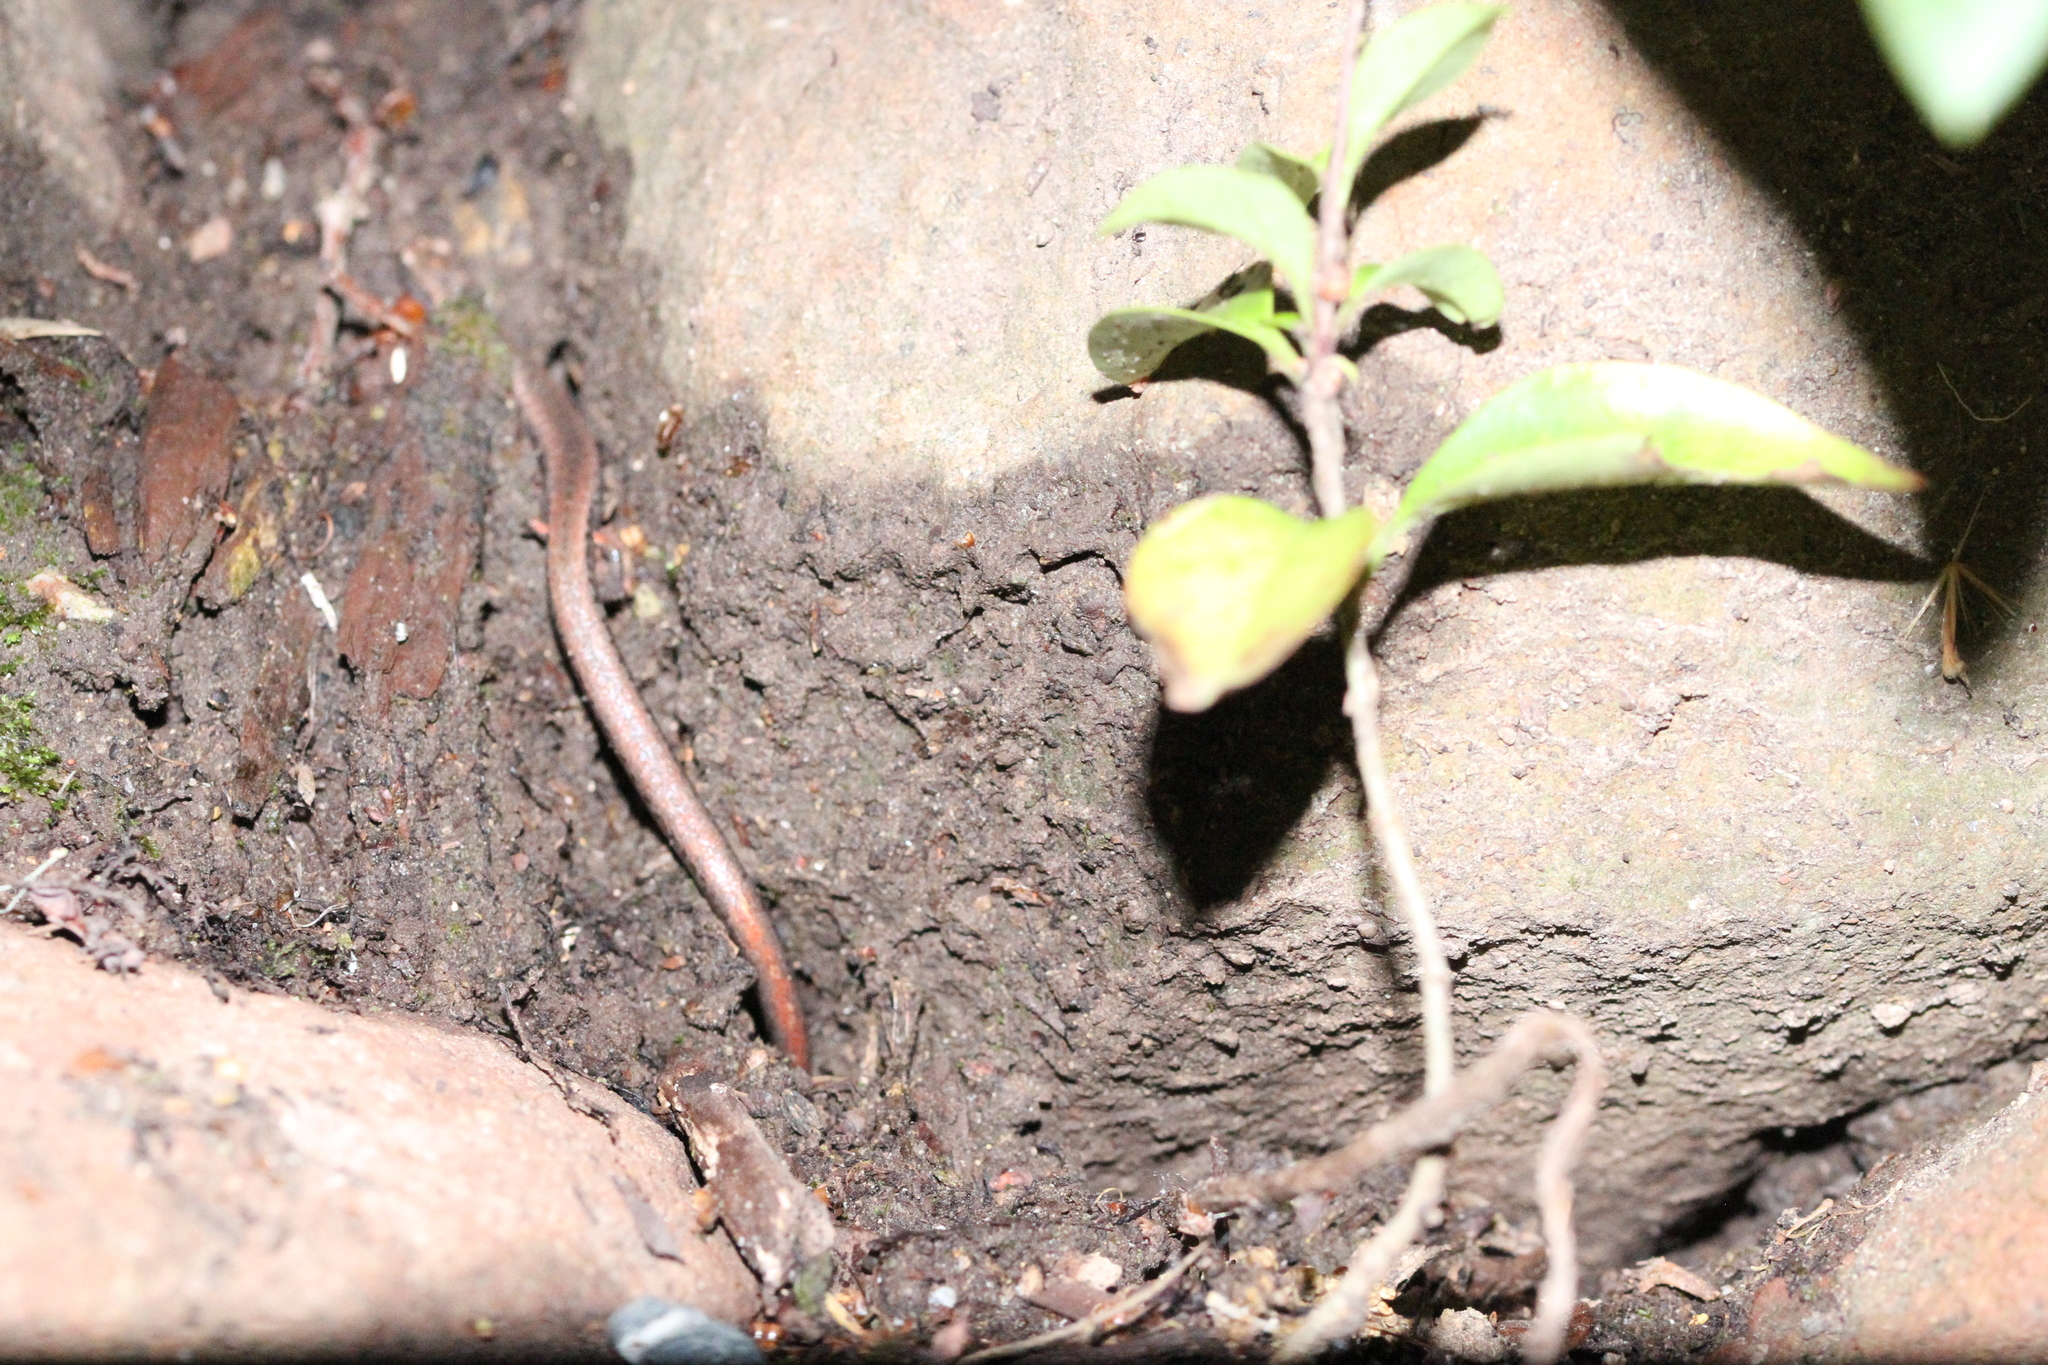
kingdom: Animalia
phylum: Chordata
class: Amphibia
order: Caudata
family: Plethodontidae
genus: Batrachoseps
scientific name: Batrachoseps attenuatus
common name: California slender salamander
